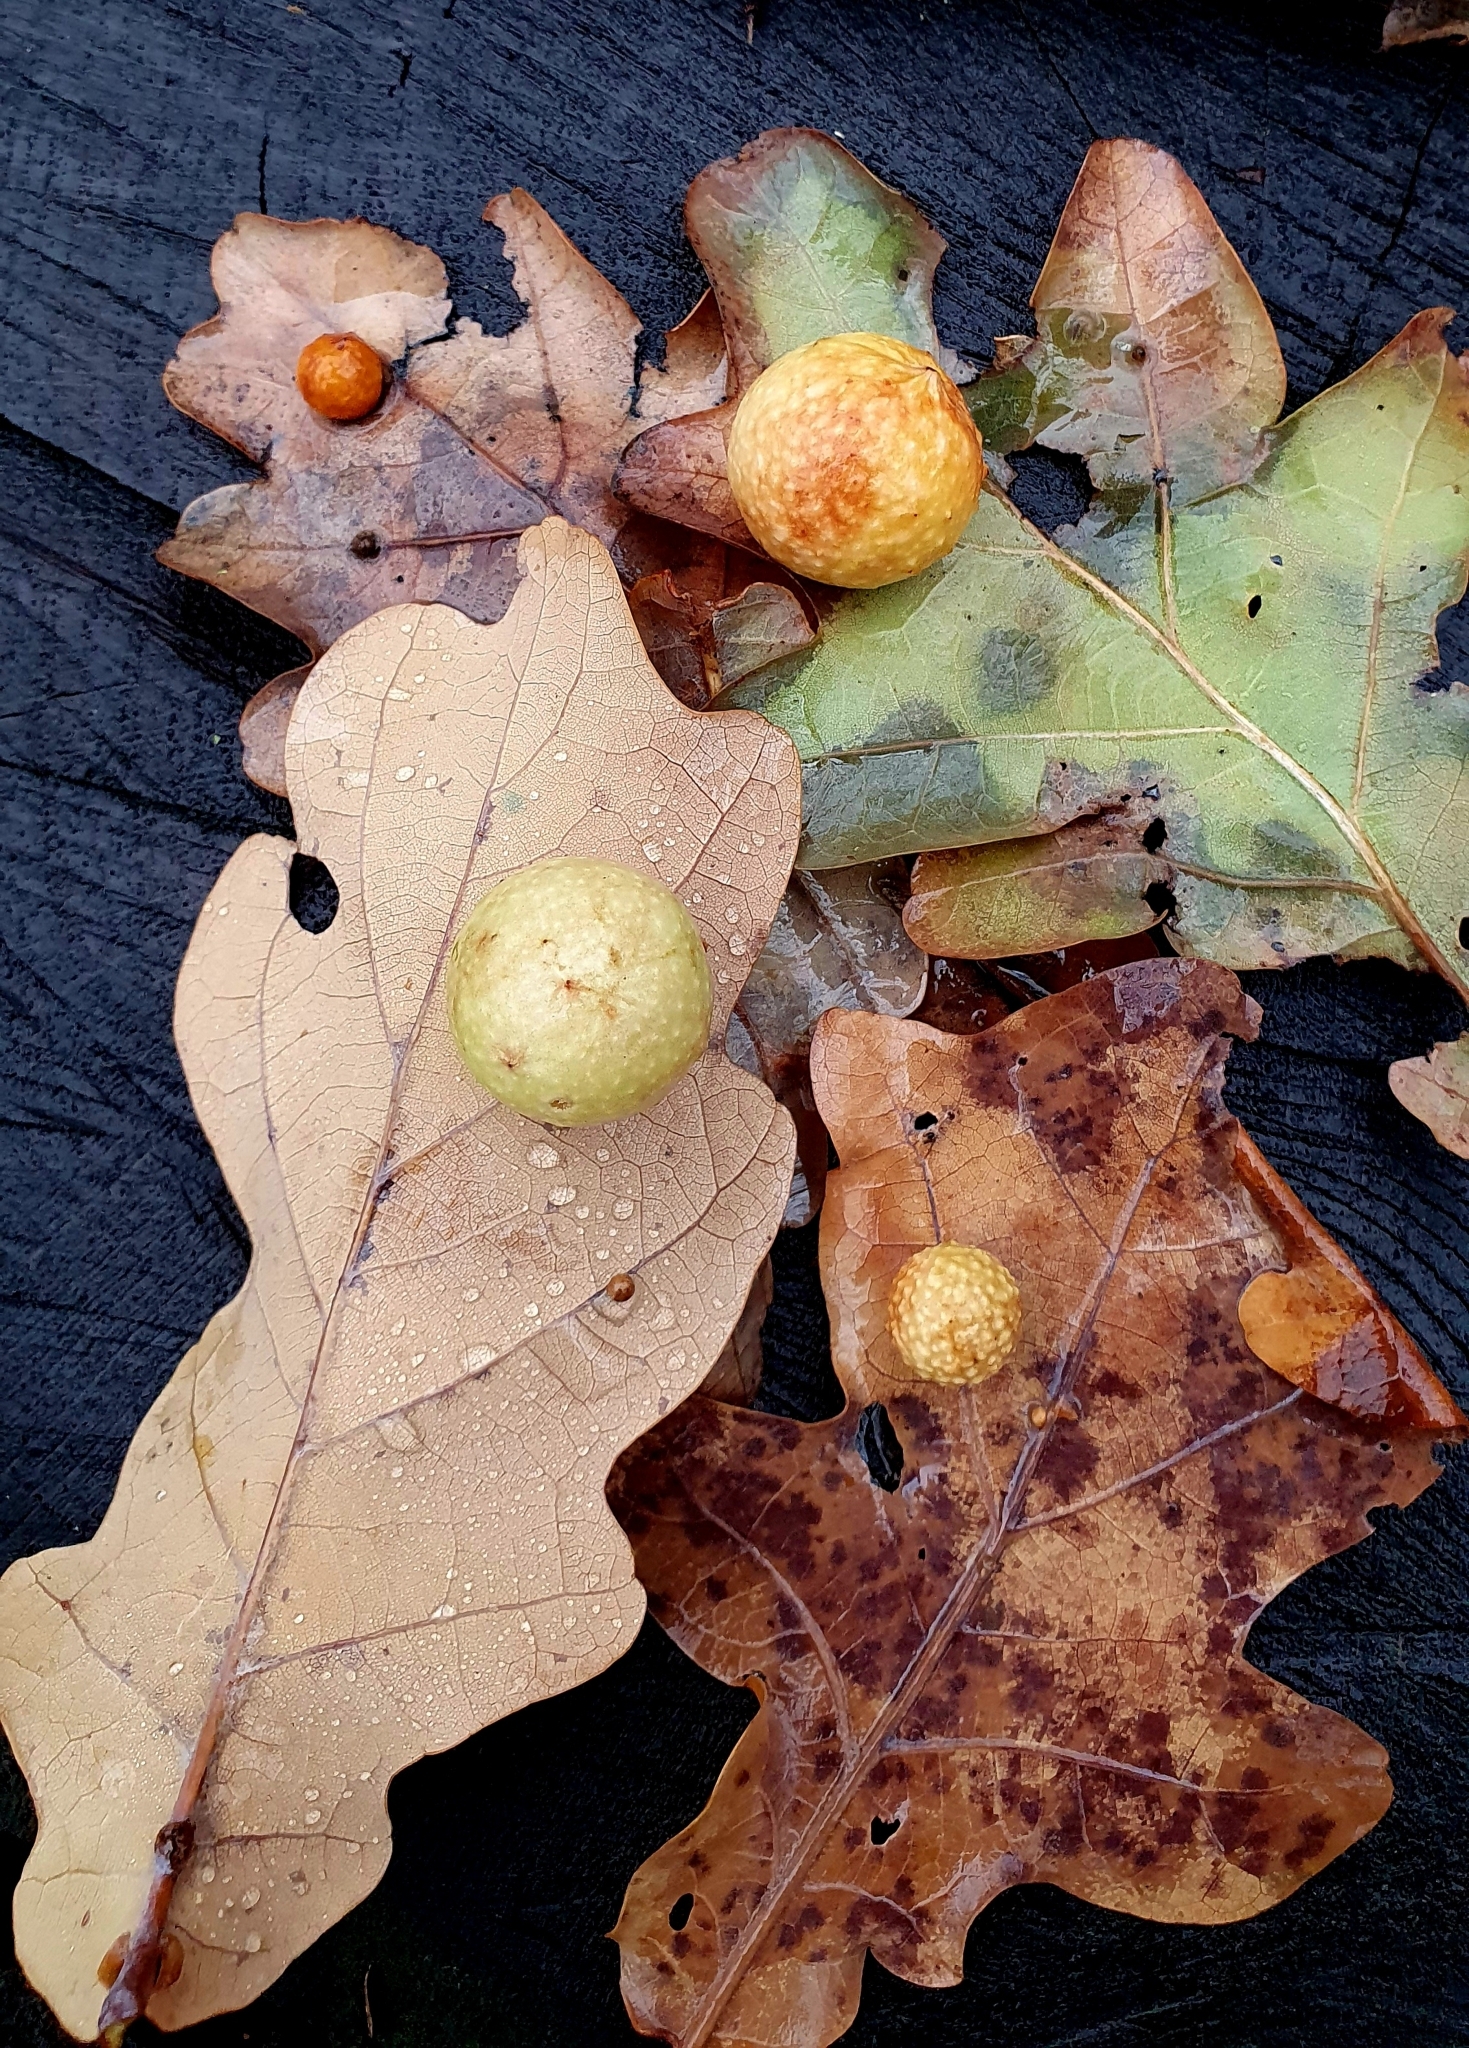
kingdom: Animalia
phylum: Arthropoda
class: Insecta
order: Hymenoptera
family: Cynipidae
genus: Cynips
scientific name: Cynips quercusfolii
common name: Cherry gall
